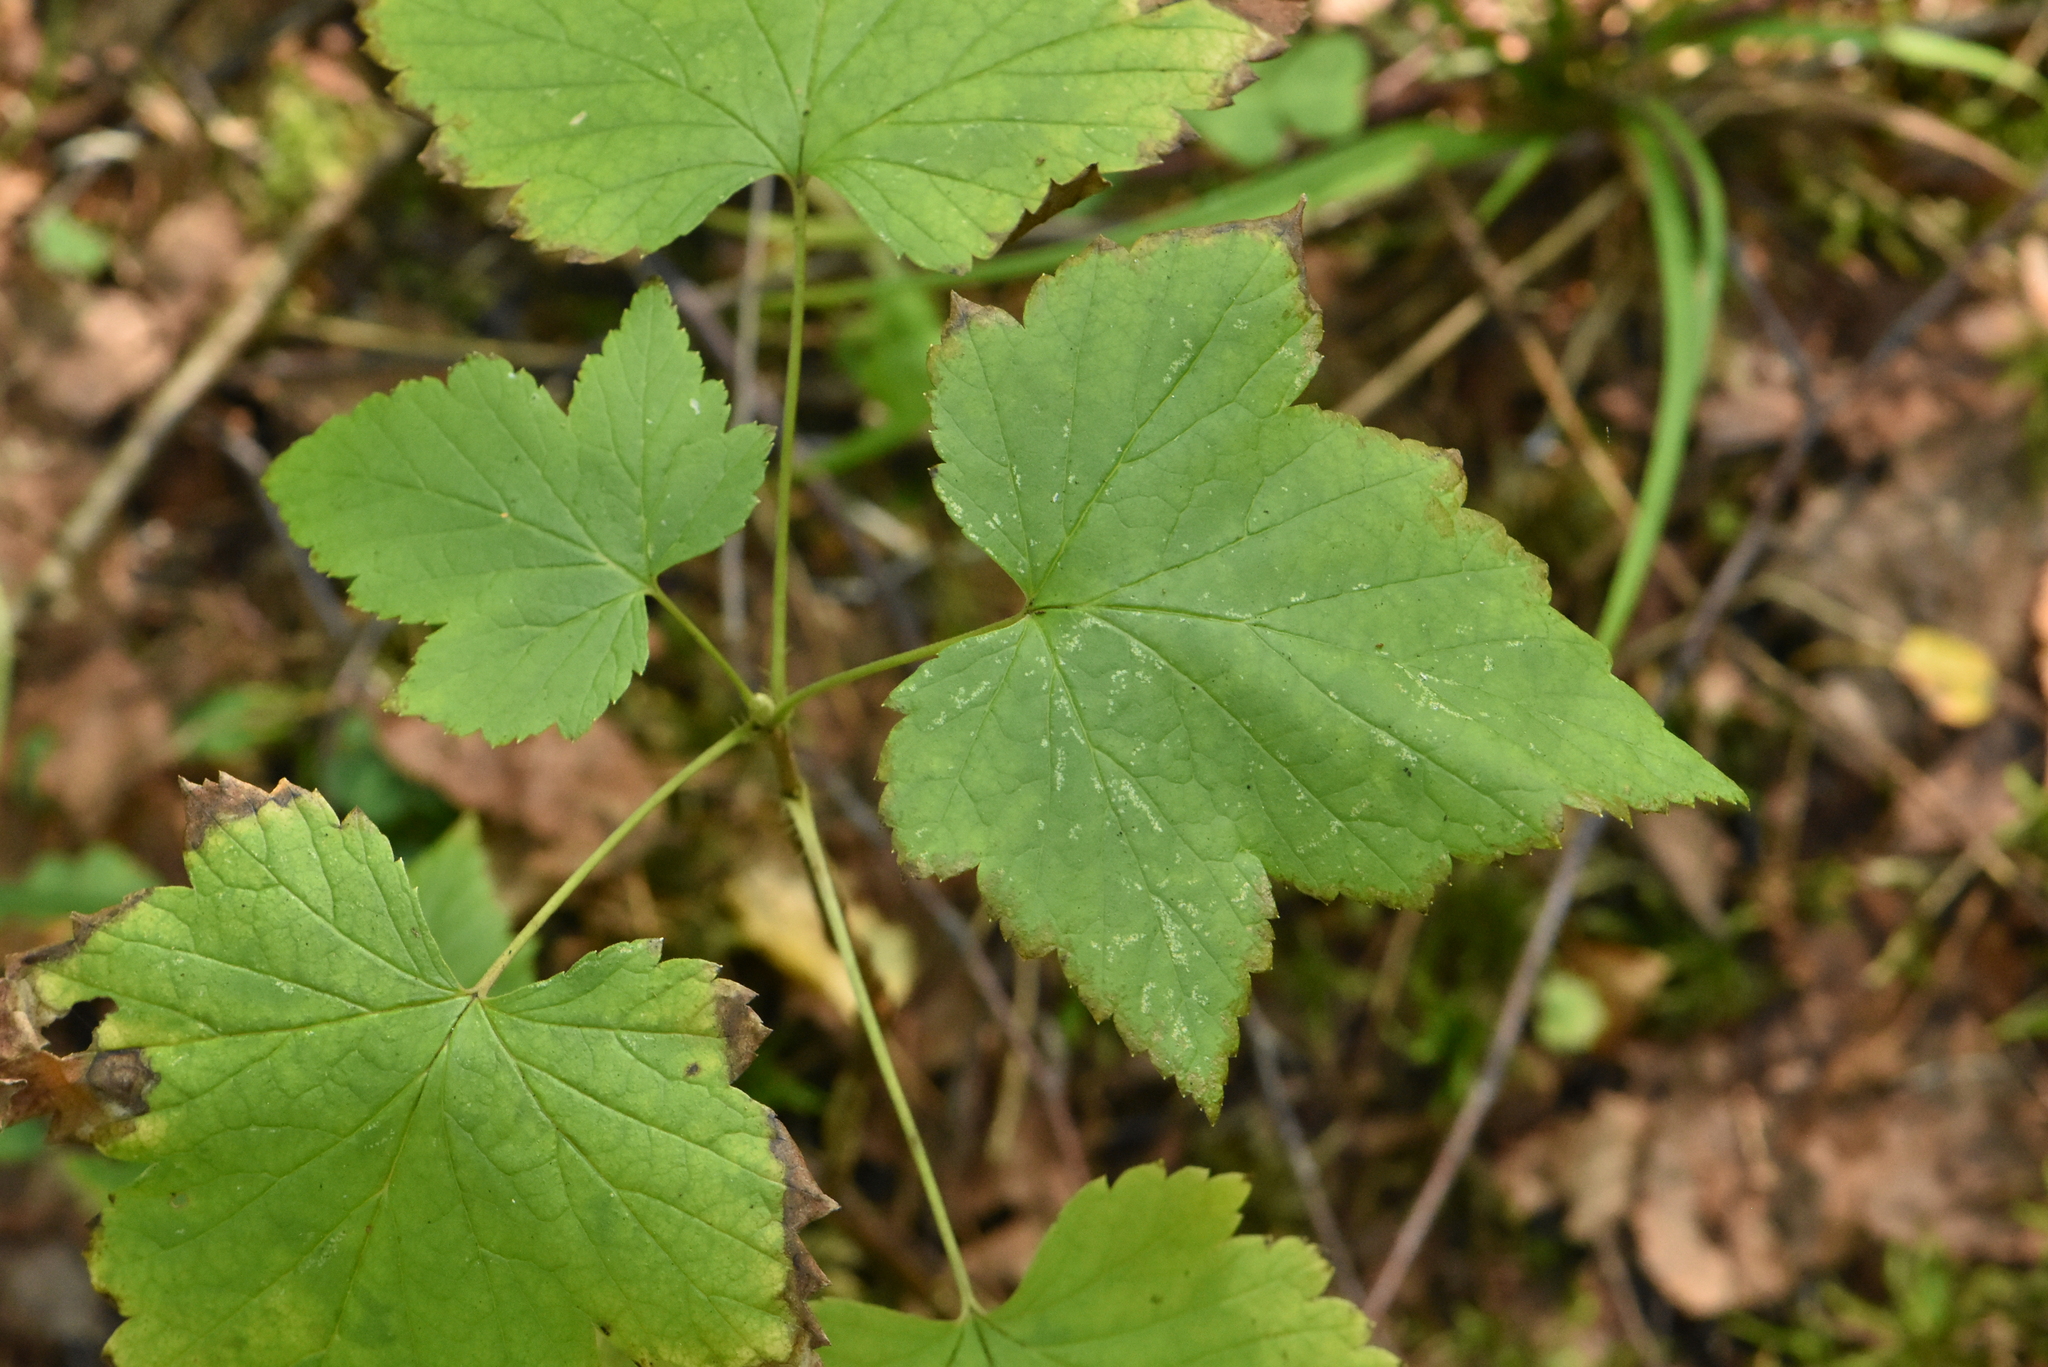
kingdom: Plantae
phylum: Tracheophyta
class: Magnoliopsida
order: Saxifragales
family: Grossulariaceae
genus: Ribes
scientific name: Ribes nigrum
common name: Black currant
